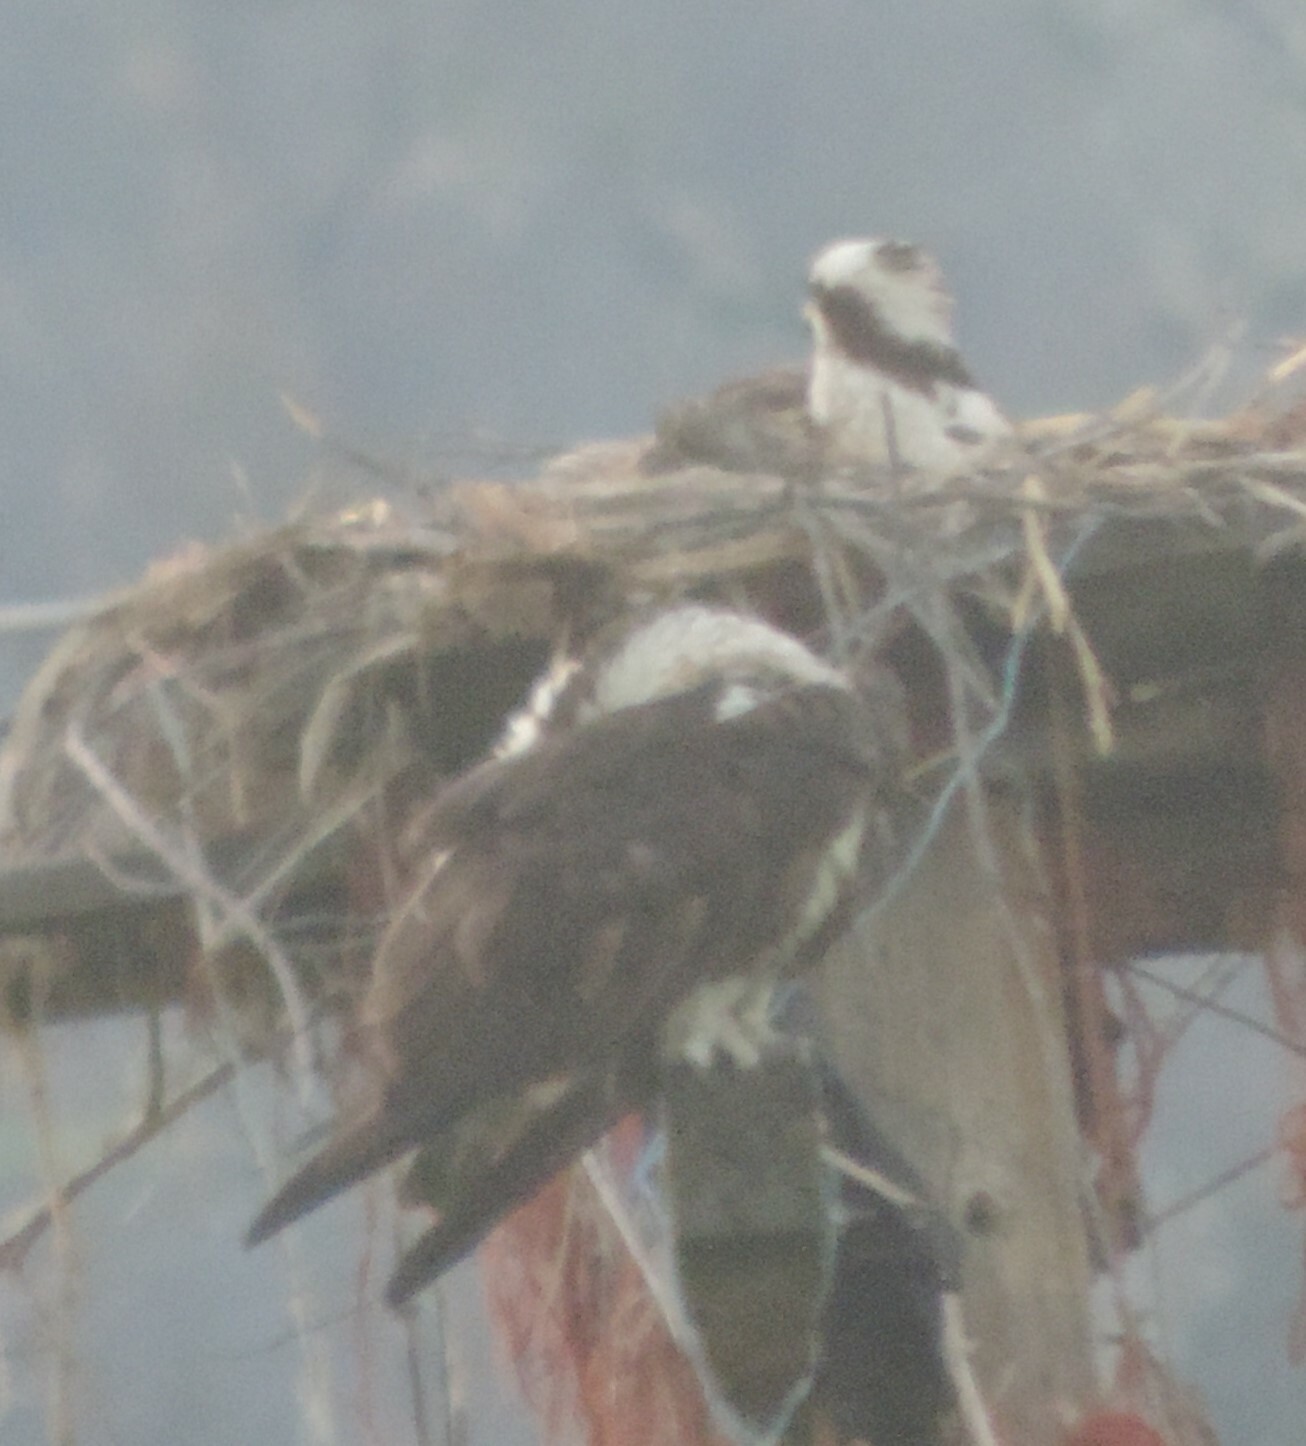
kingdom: Animalia
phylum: Chordata
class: Aves
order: Accipitriformes
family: Pandionidae
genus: Pandion
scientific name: Pandion haliaetus
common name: Osprey
